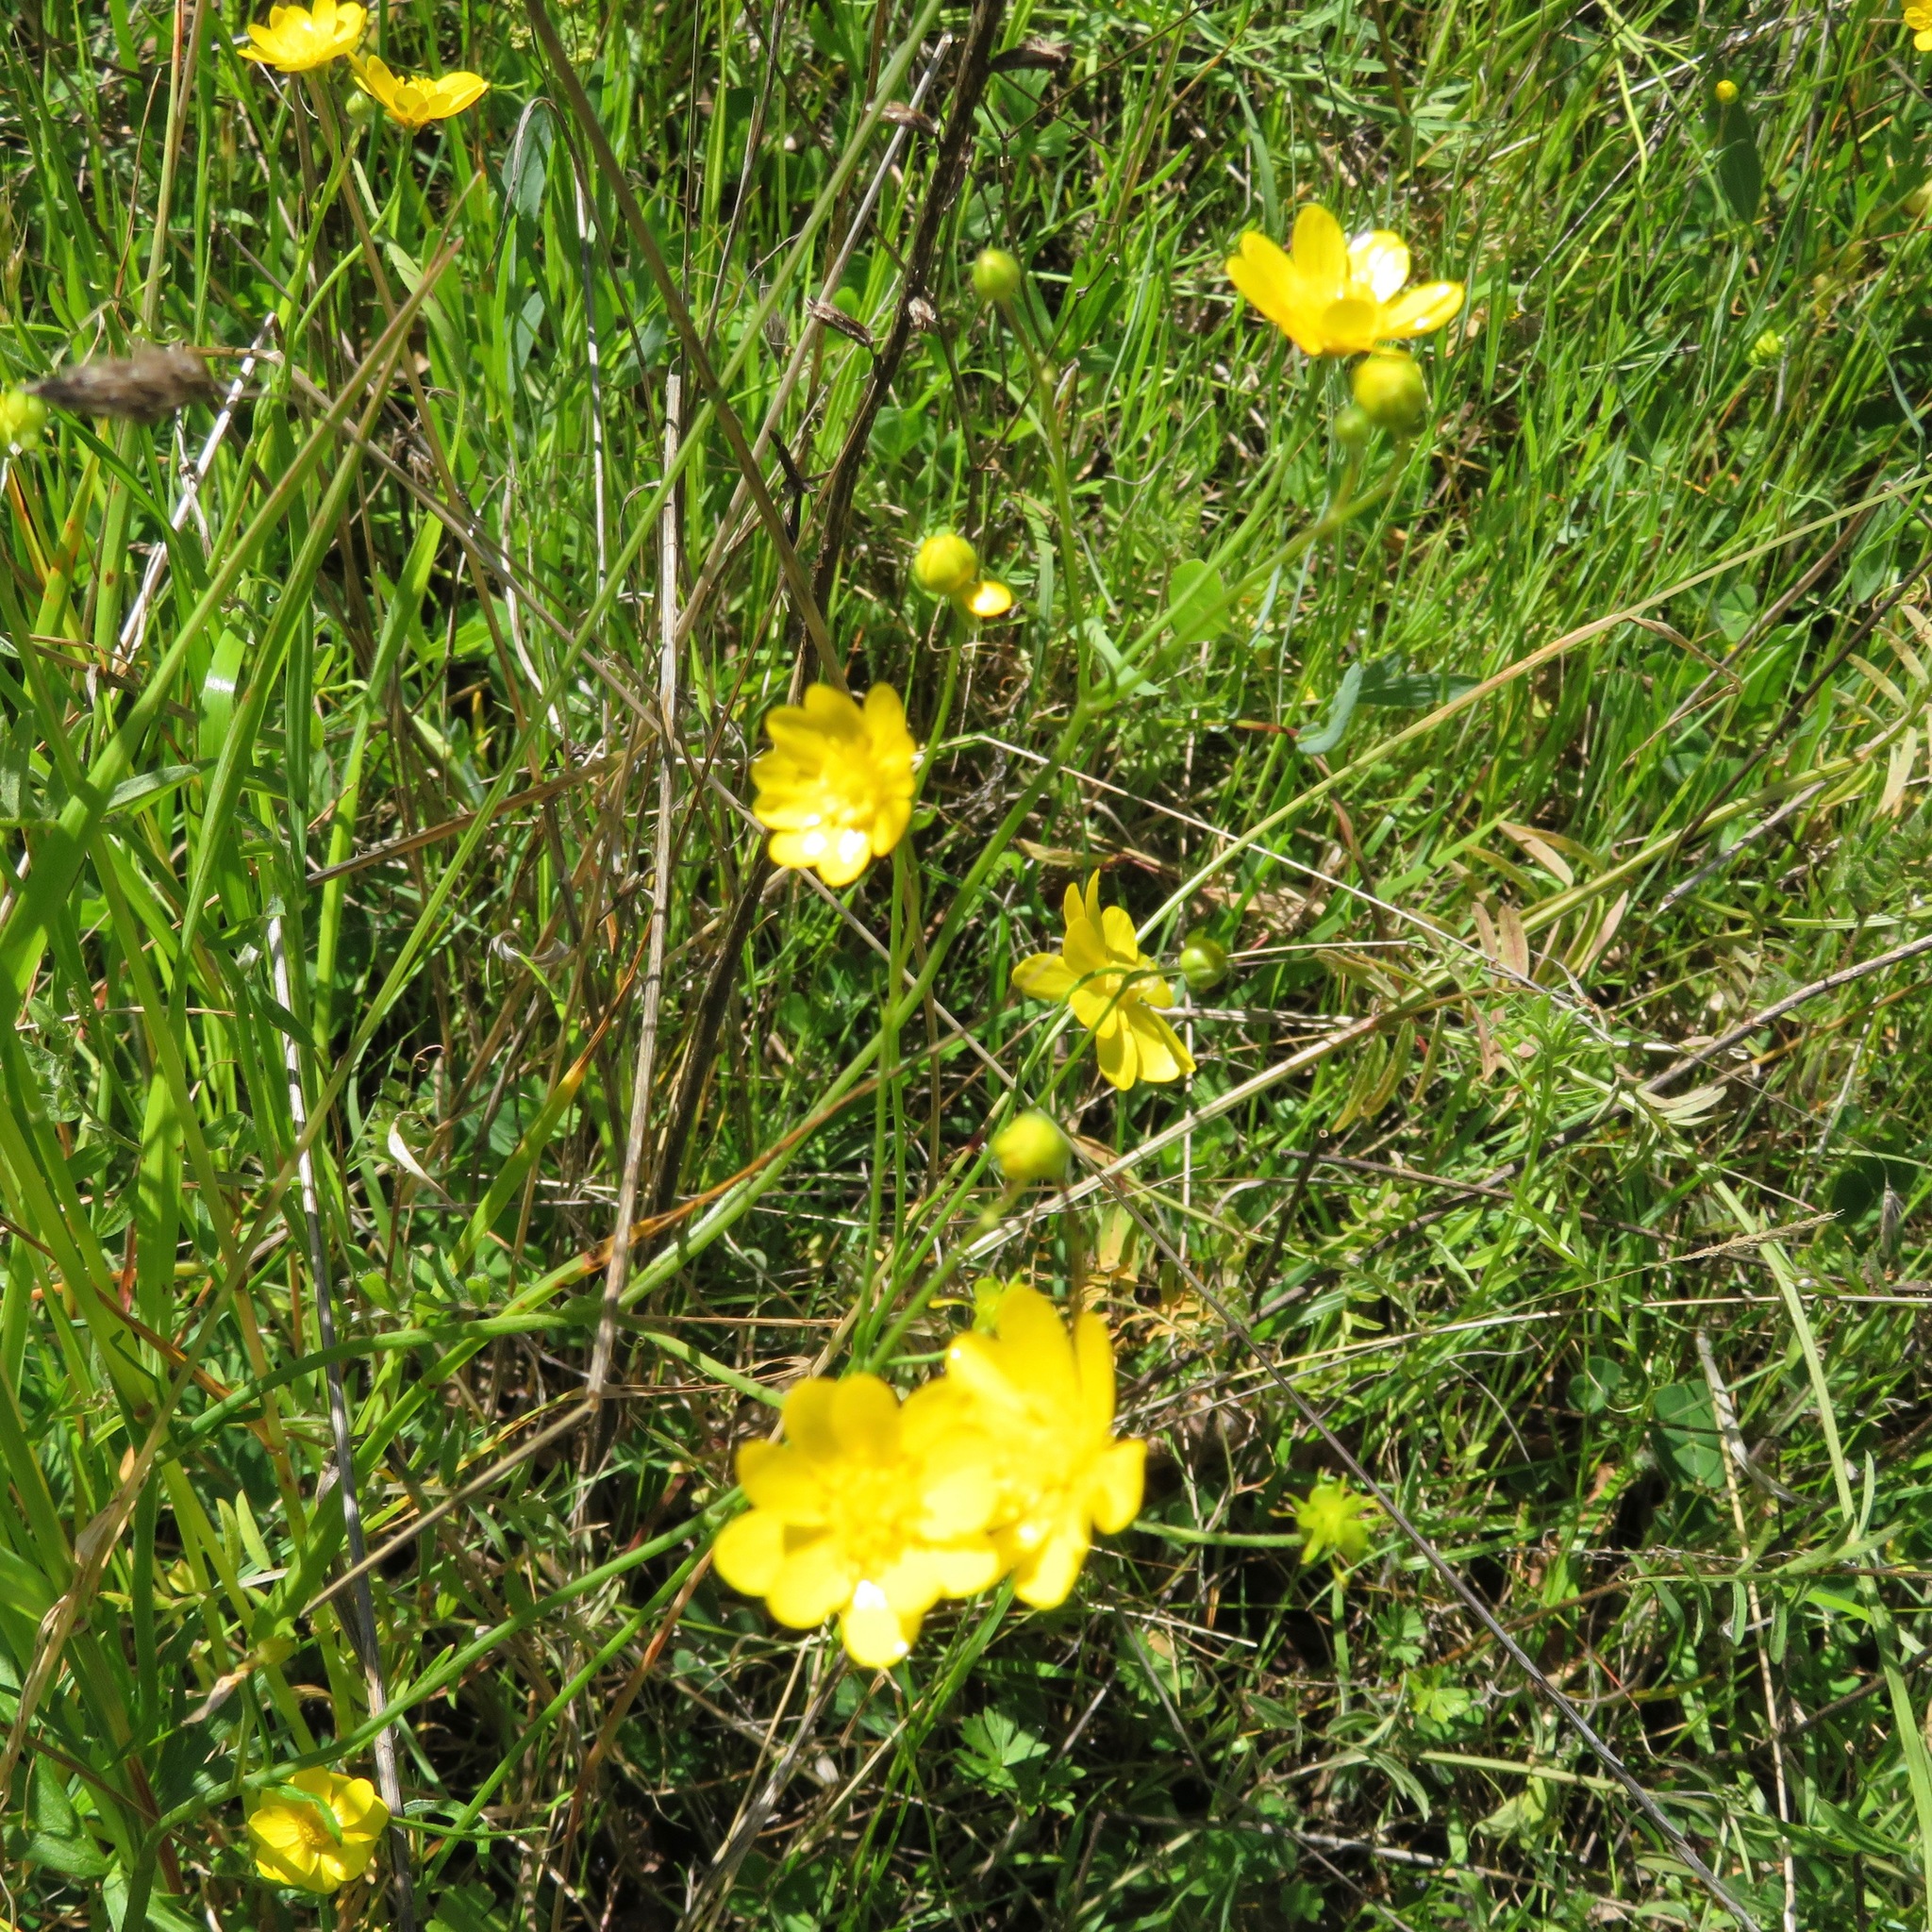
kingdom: Plantae
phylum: Tracheophyta
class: Magnoliopsida
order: Ranunculales
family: Ranunculaceae
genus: Ranunculus
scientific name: Ranunculus californicus
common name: California buttercup
